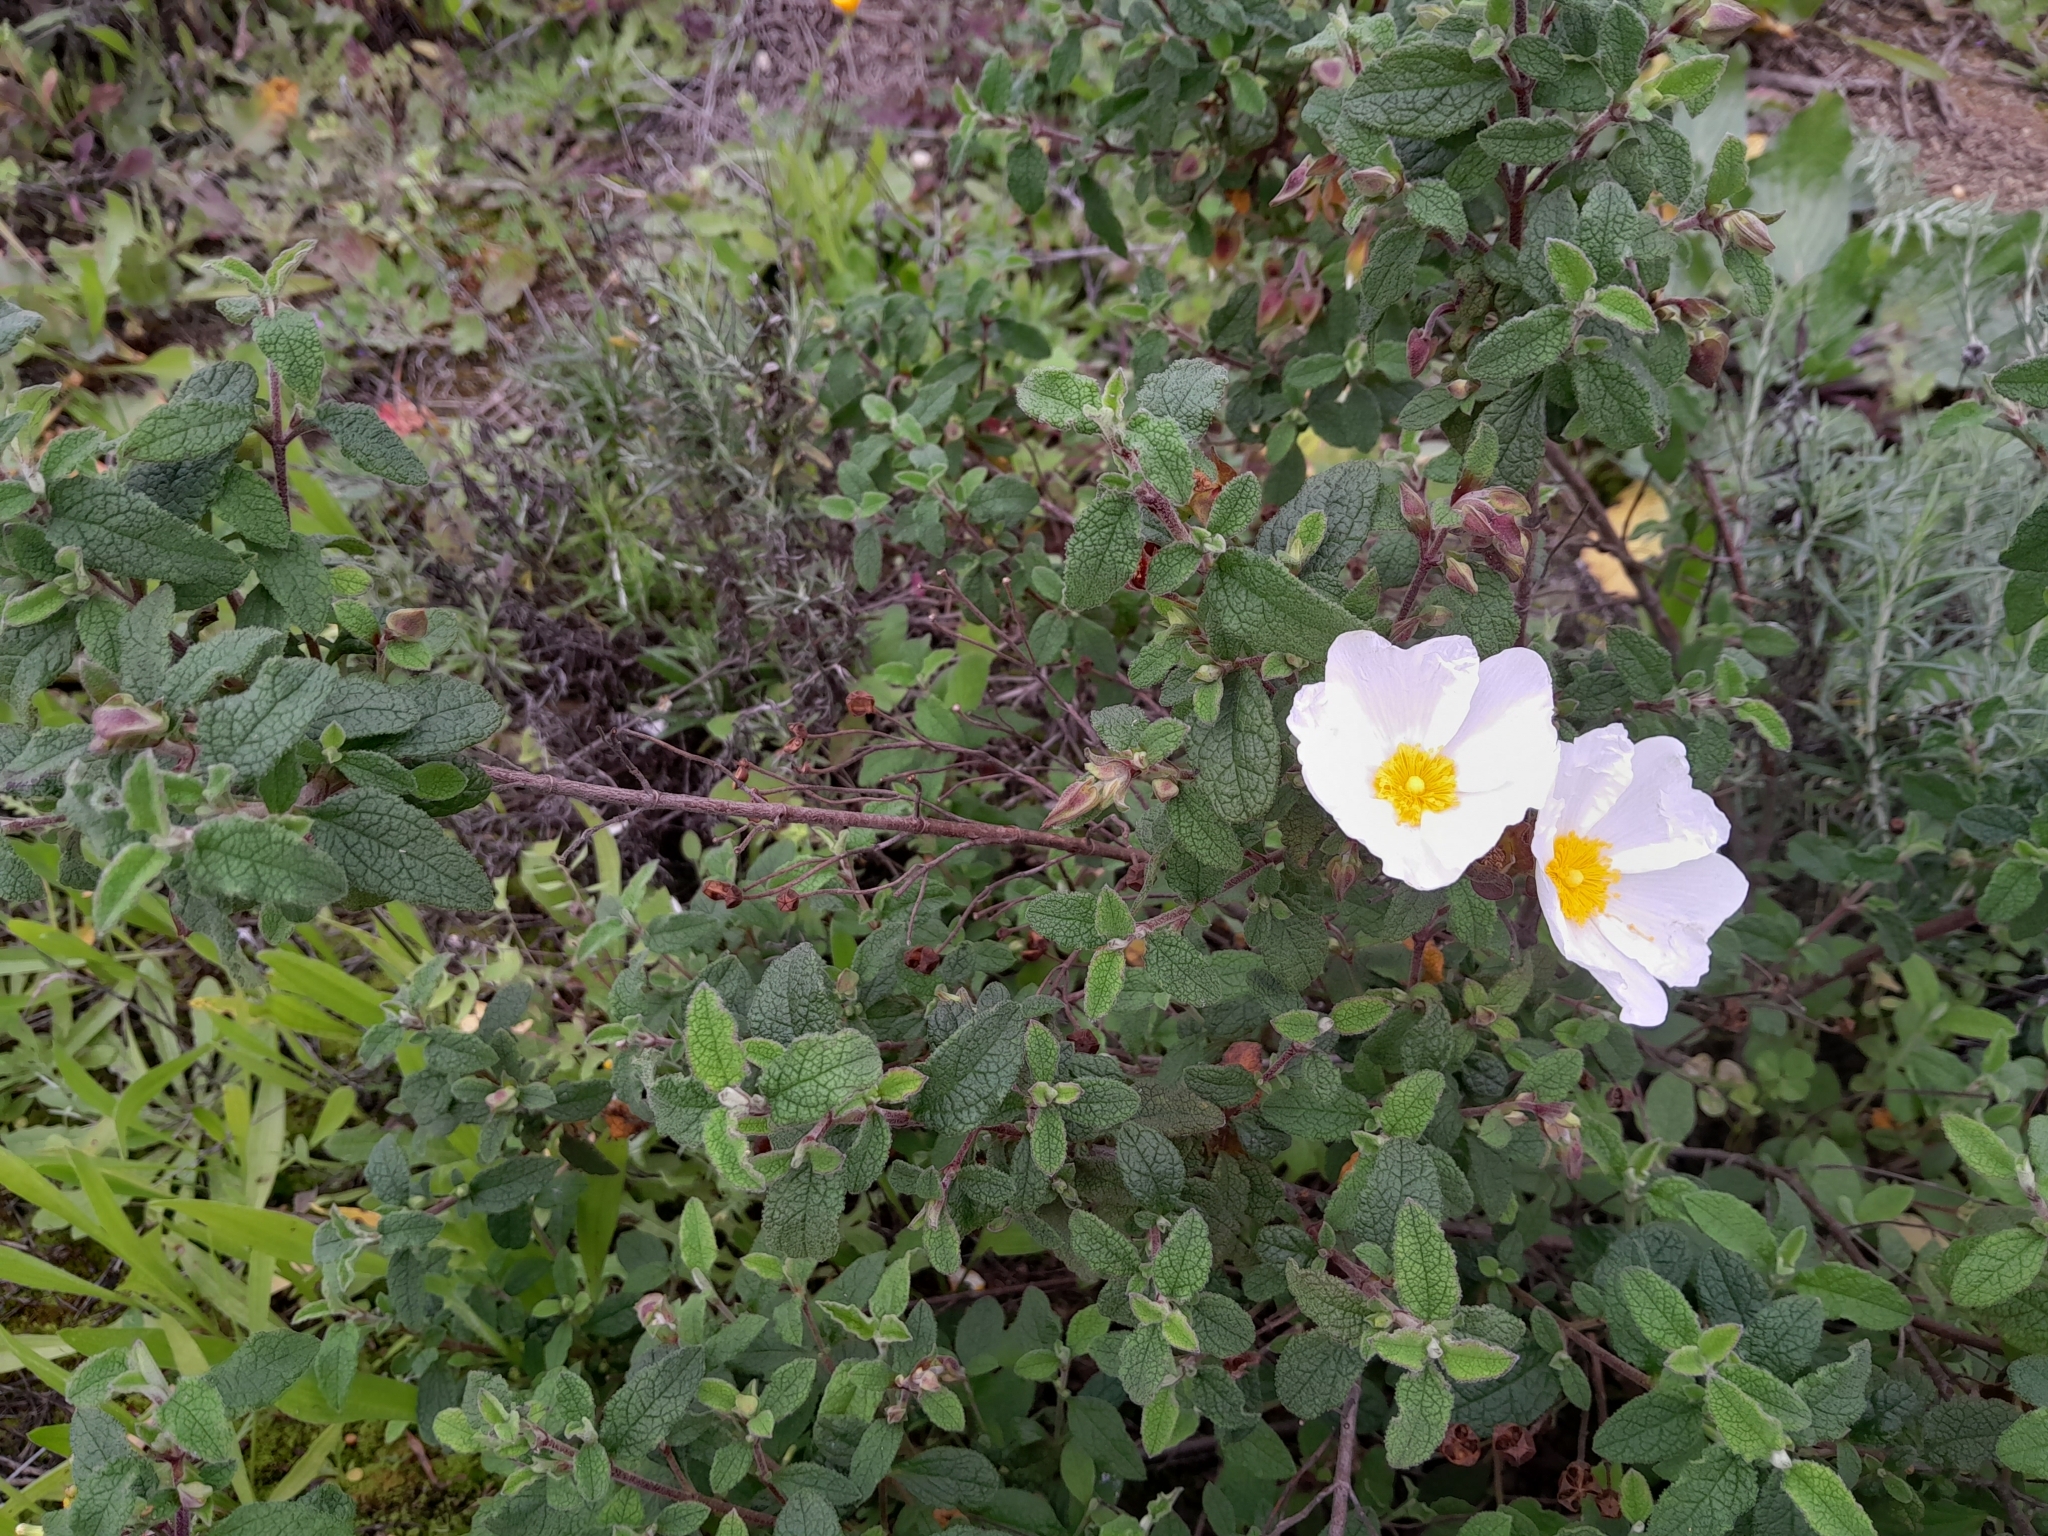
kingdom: Plantae
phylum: Tracheophyta
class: Magnoliopsida
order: Malvales
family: Cistaceae
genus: Cistus
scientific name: Cistus salviifolius
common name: Salvia cistus
